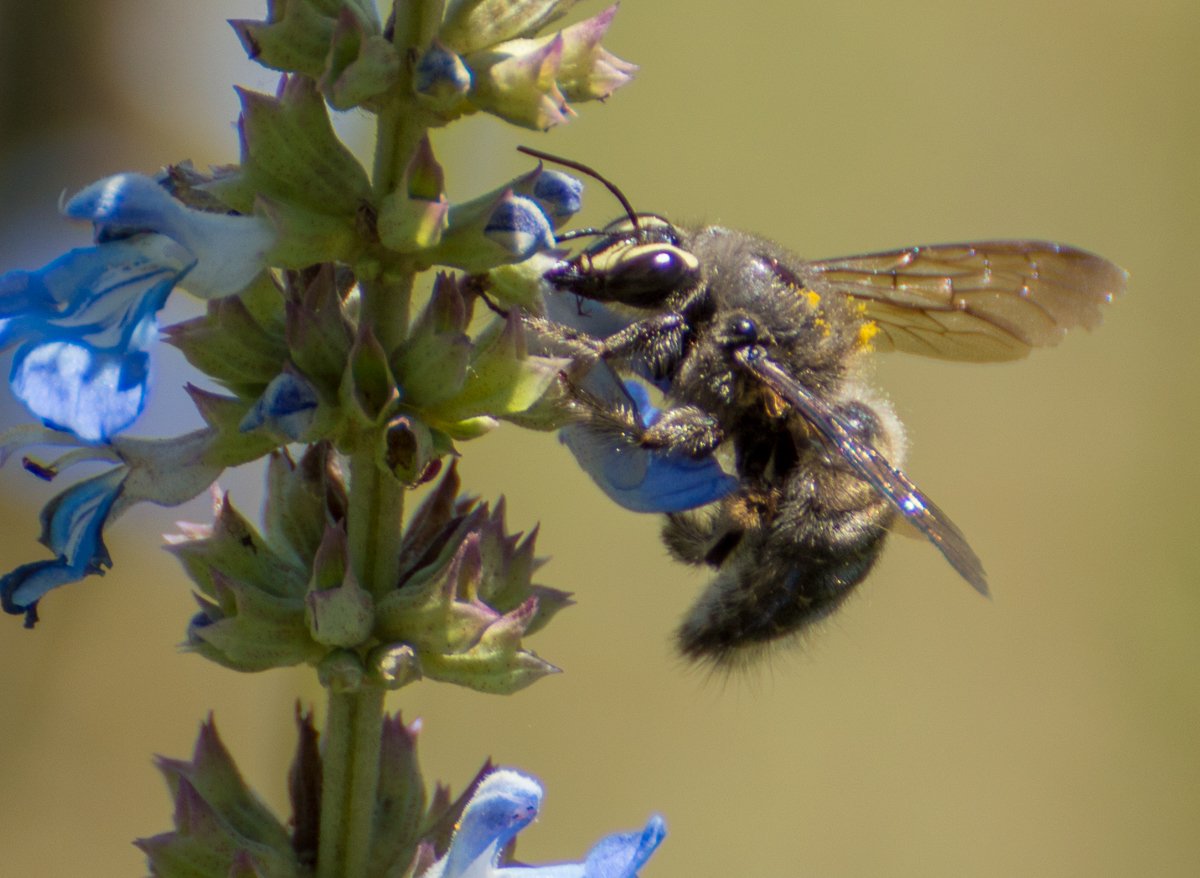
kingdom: Animalia
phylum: Arthropoda
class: Insecta
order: Hymenoptera
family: Apidae
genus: Xylocopa
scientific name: Xylocopa artifex
